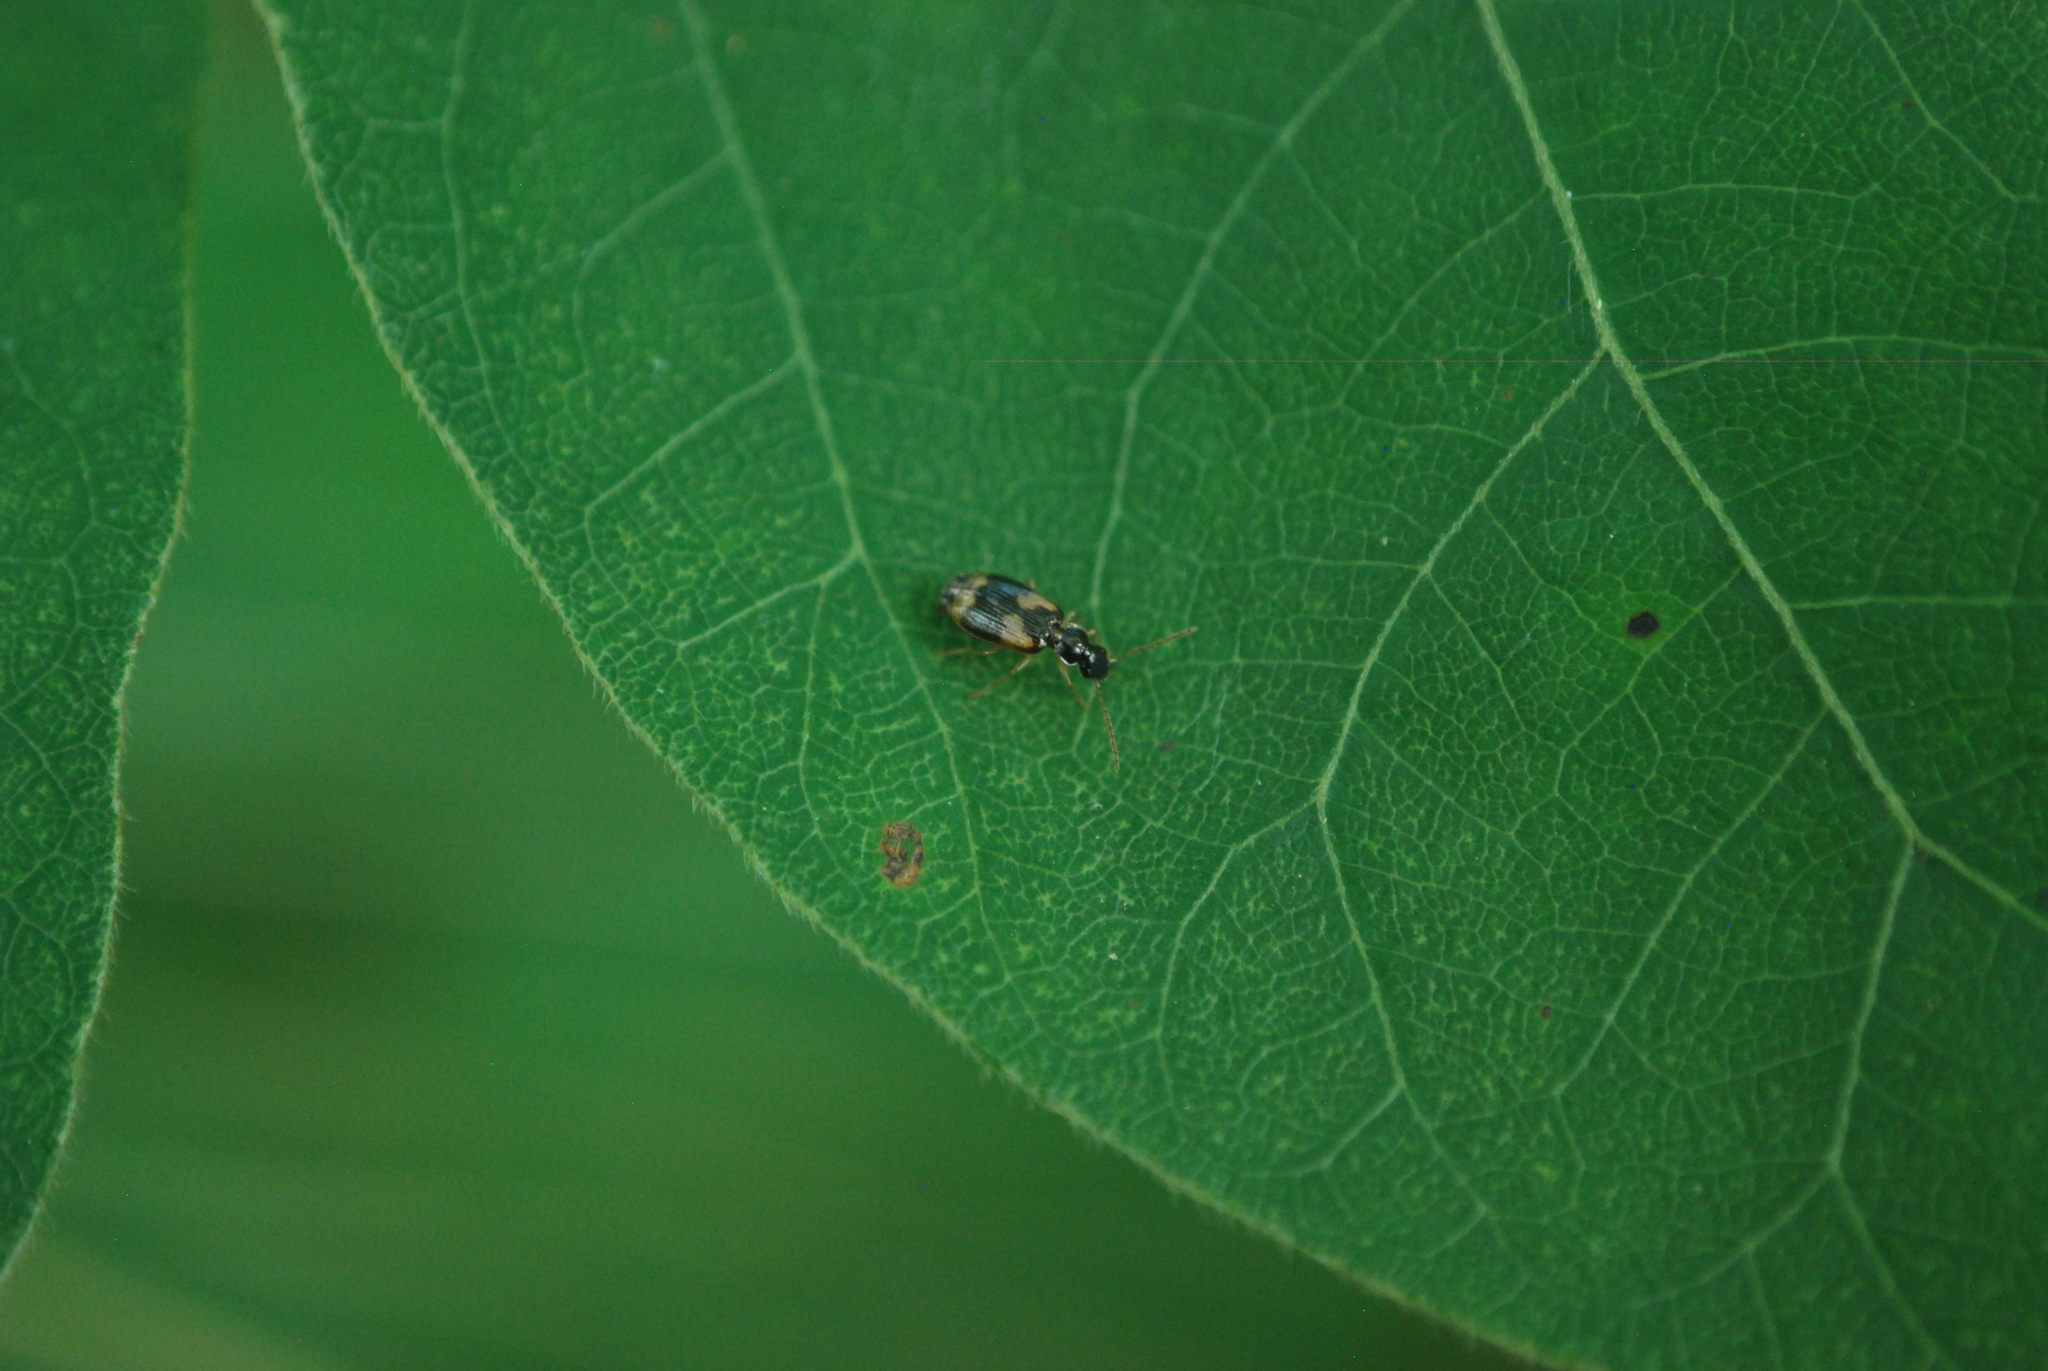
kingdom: Animalia
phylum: Arthropoda
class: Insecta
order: Coleoptera
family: Carabidae
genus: Lebia
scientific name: Lebia lobulata
